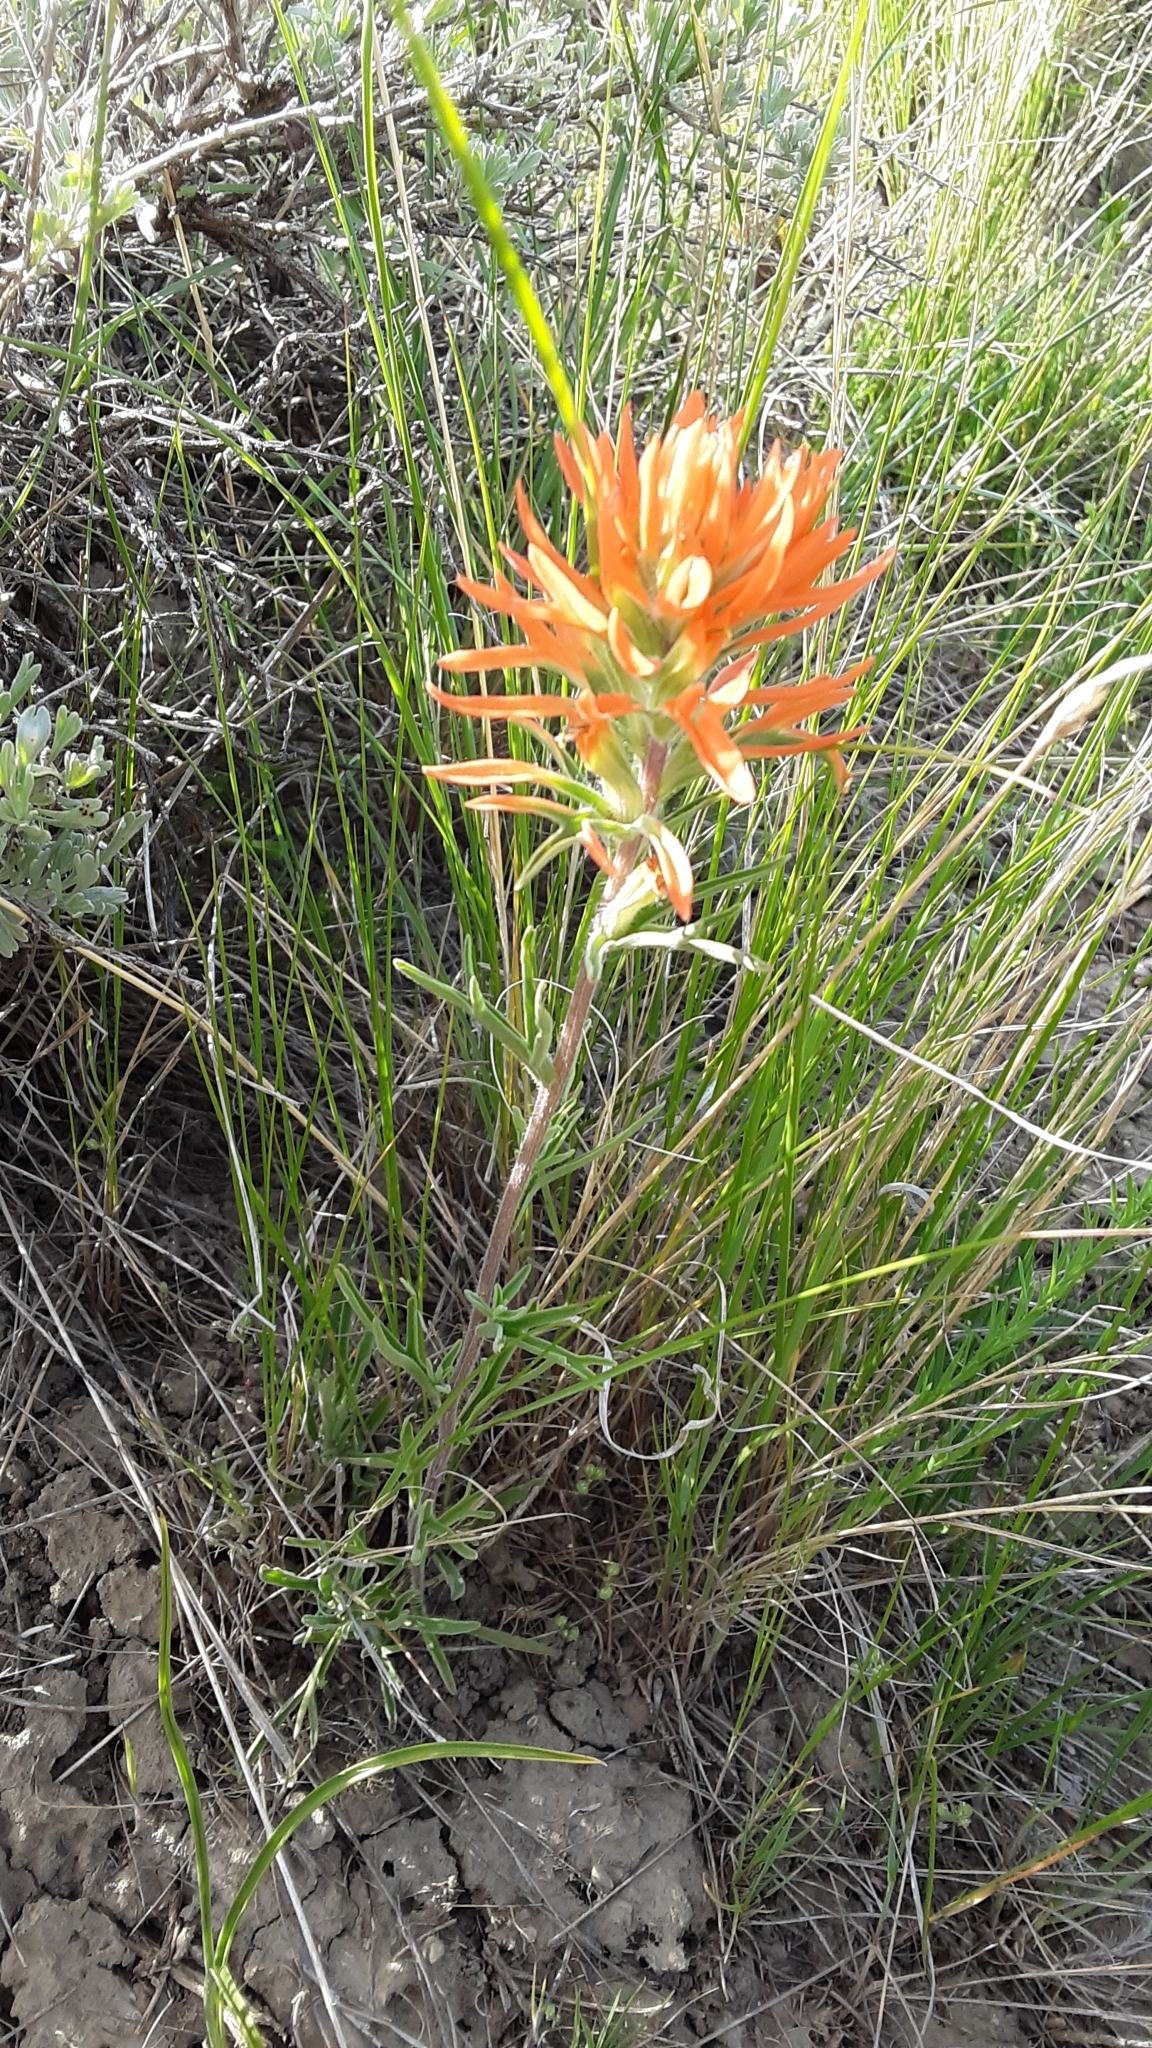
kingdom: Plantae
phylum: Tracheophyta
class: Magnoliopsida
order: Lamiales
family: Orobanchaceae
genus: Castilleja
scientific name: Castilleja hispida
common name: Bristly paintbrush
